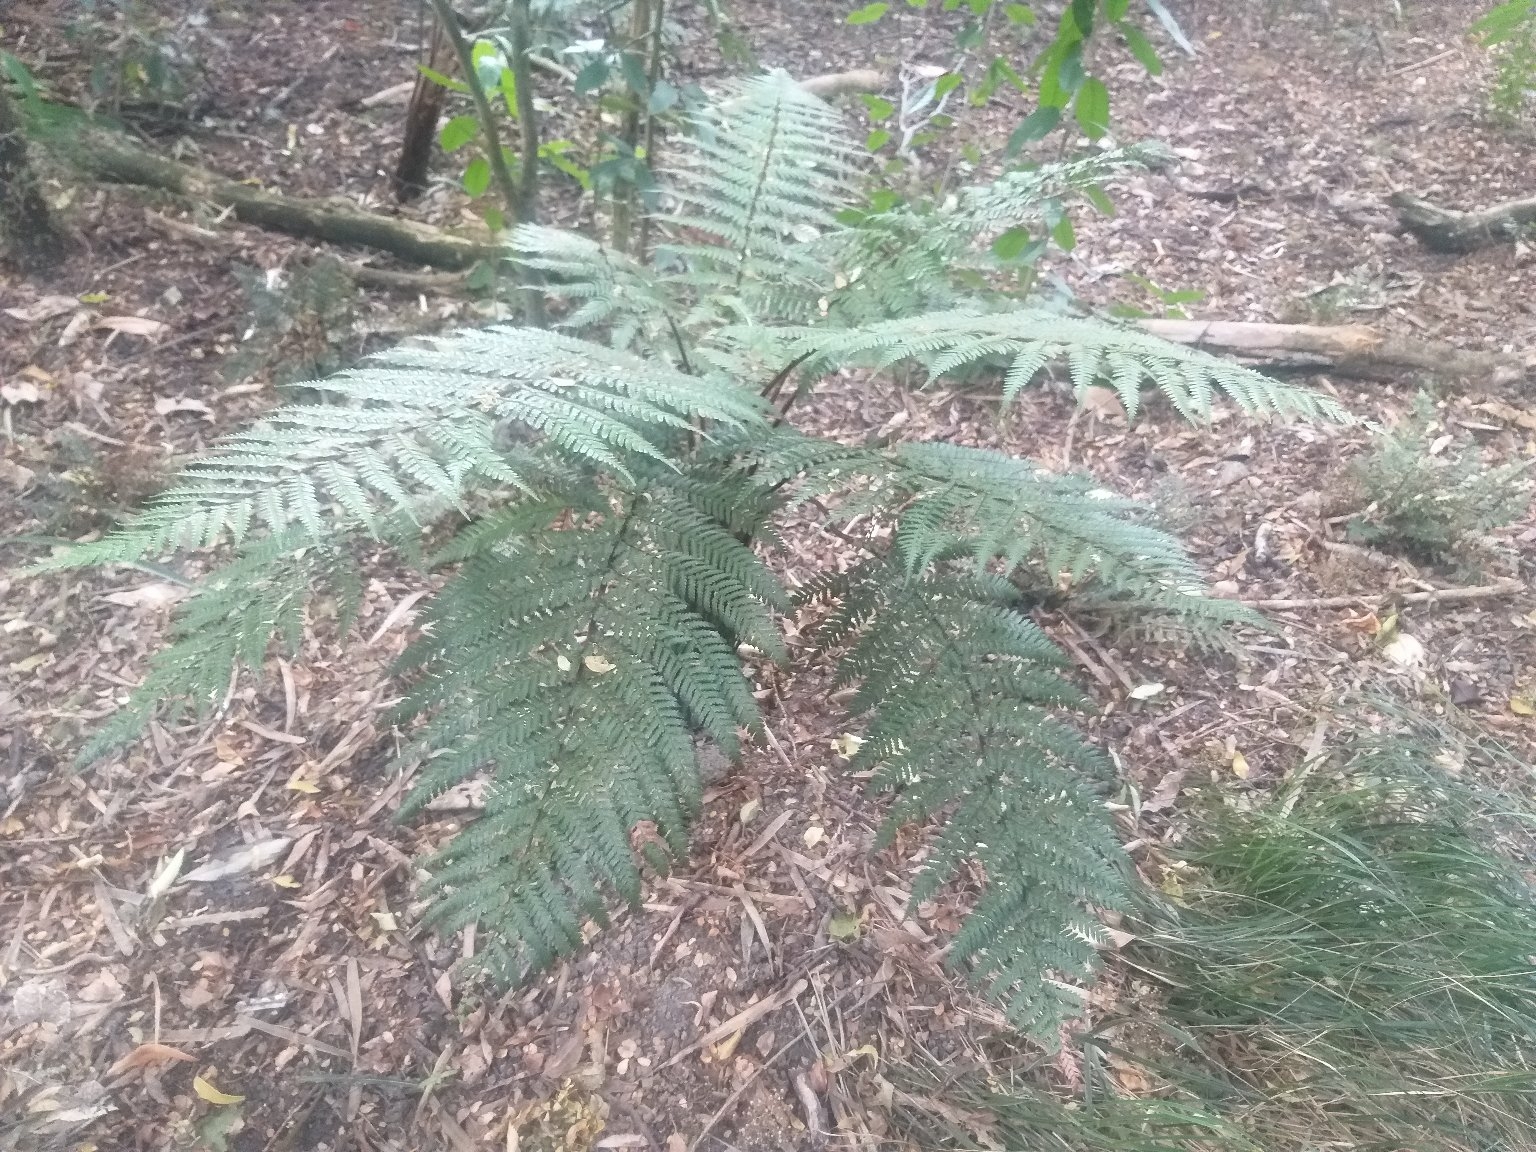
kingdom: Plantae
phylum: Tracheophyta
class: Polypodiopsida
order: Cyatheales
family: Dicksoniaceae
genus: Dicksonia
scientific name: Dicksonia squarrosa
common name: Hard treefern
